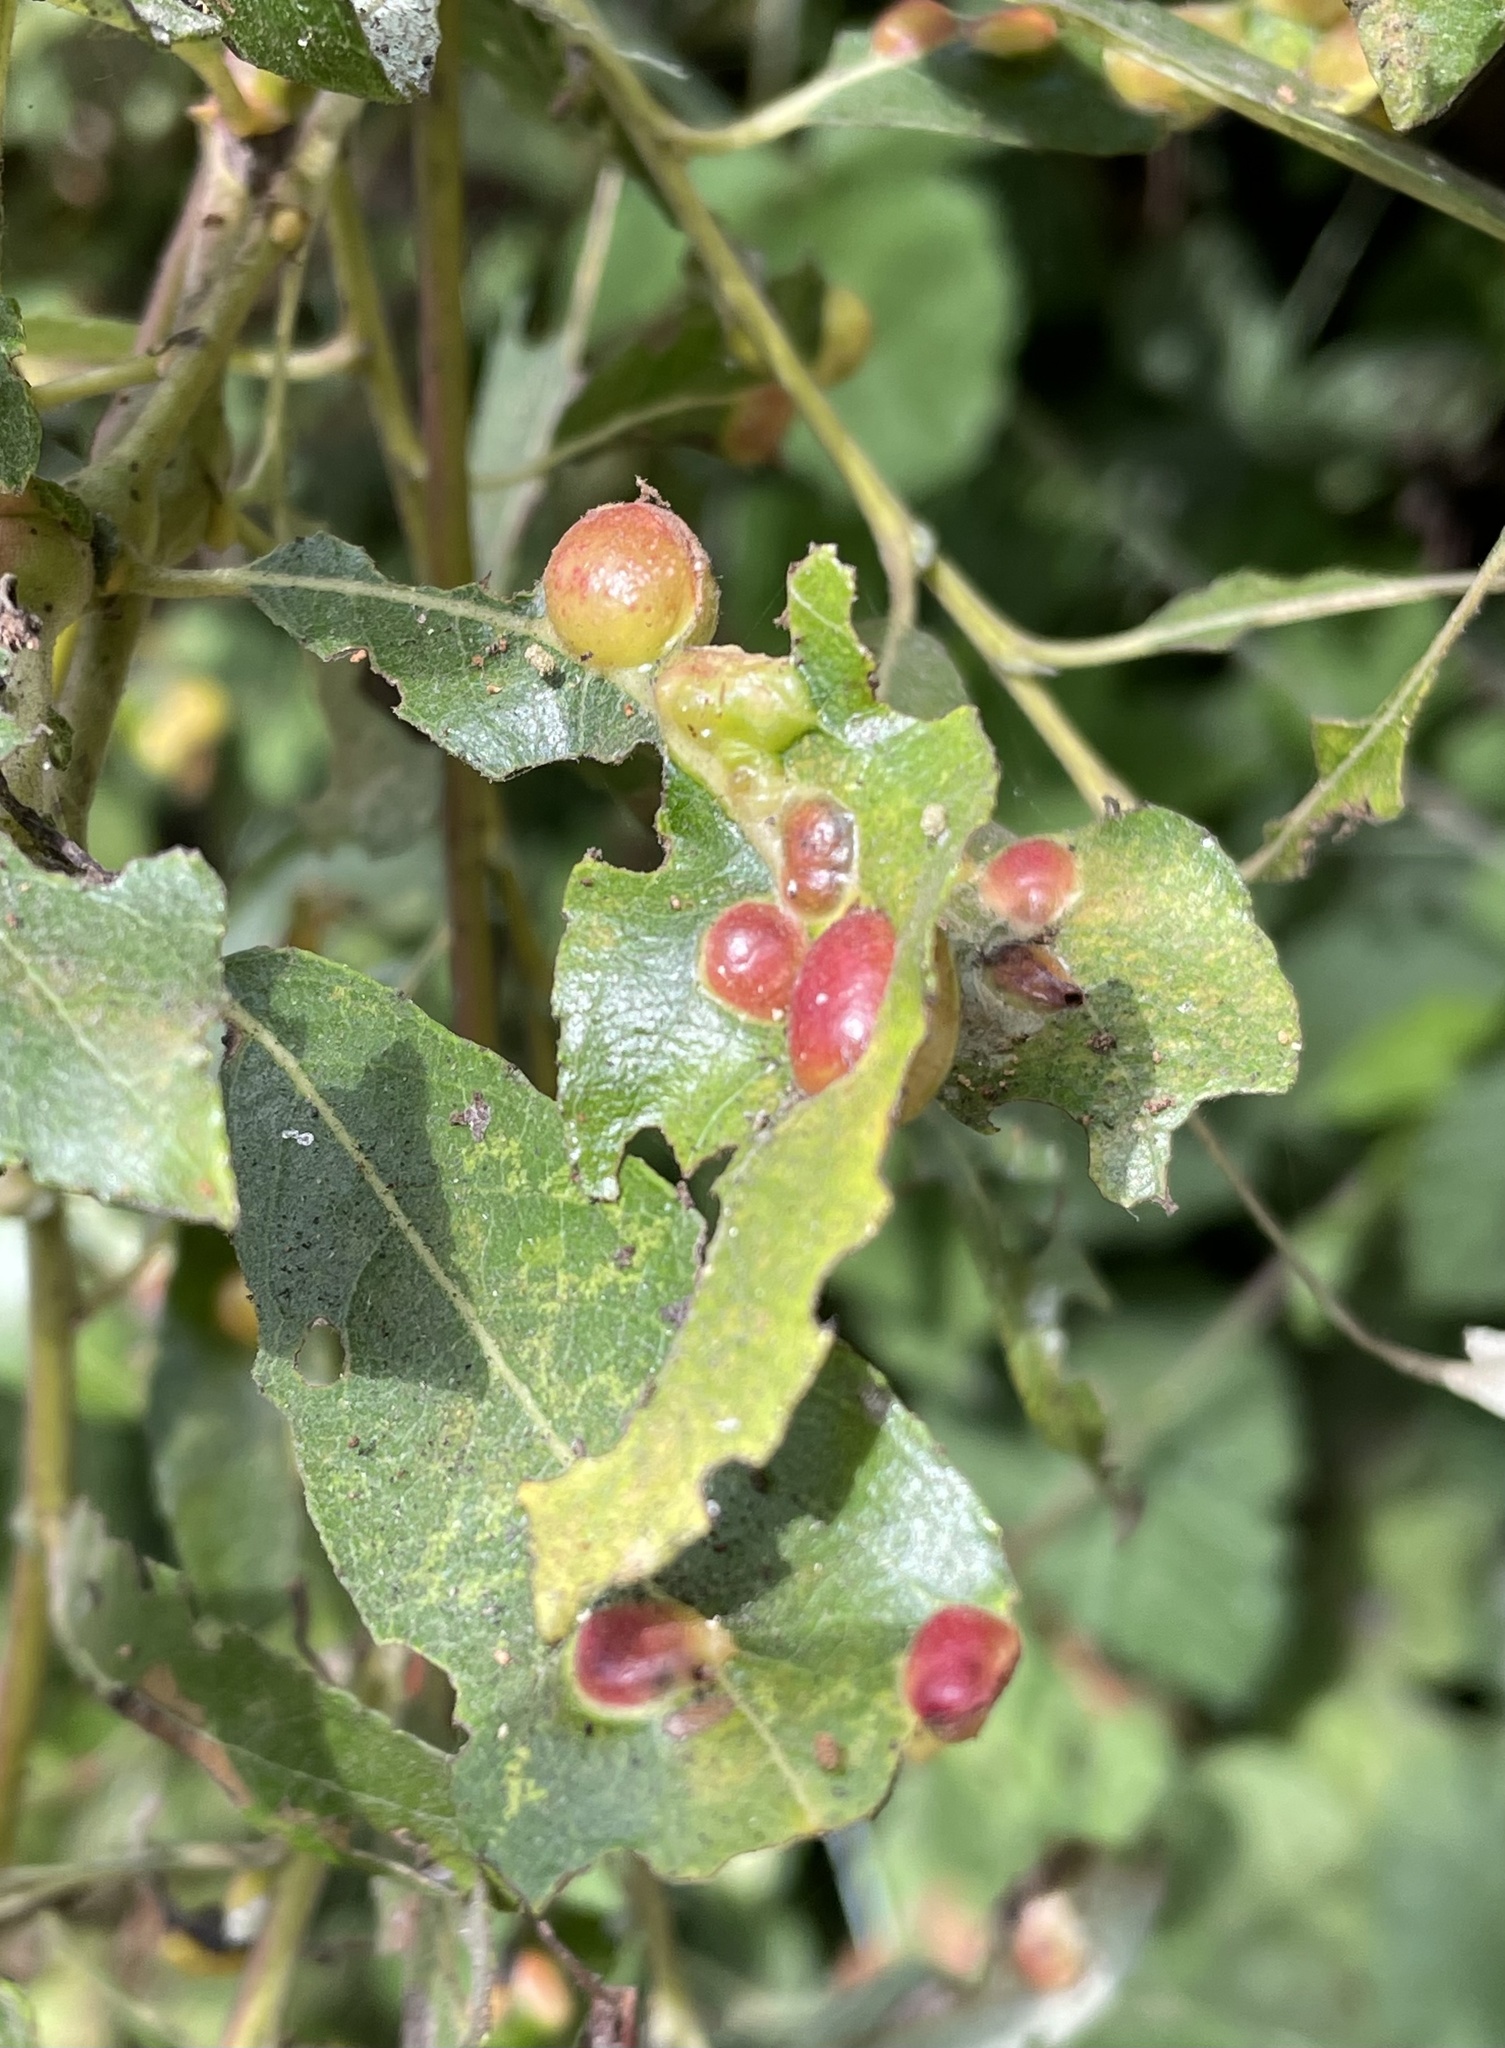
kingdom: Animalia
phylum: Arthropoda
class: Insecta
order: Hymenoptera
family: Tenthredinidae
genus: Euura
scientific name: Euura
